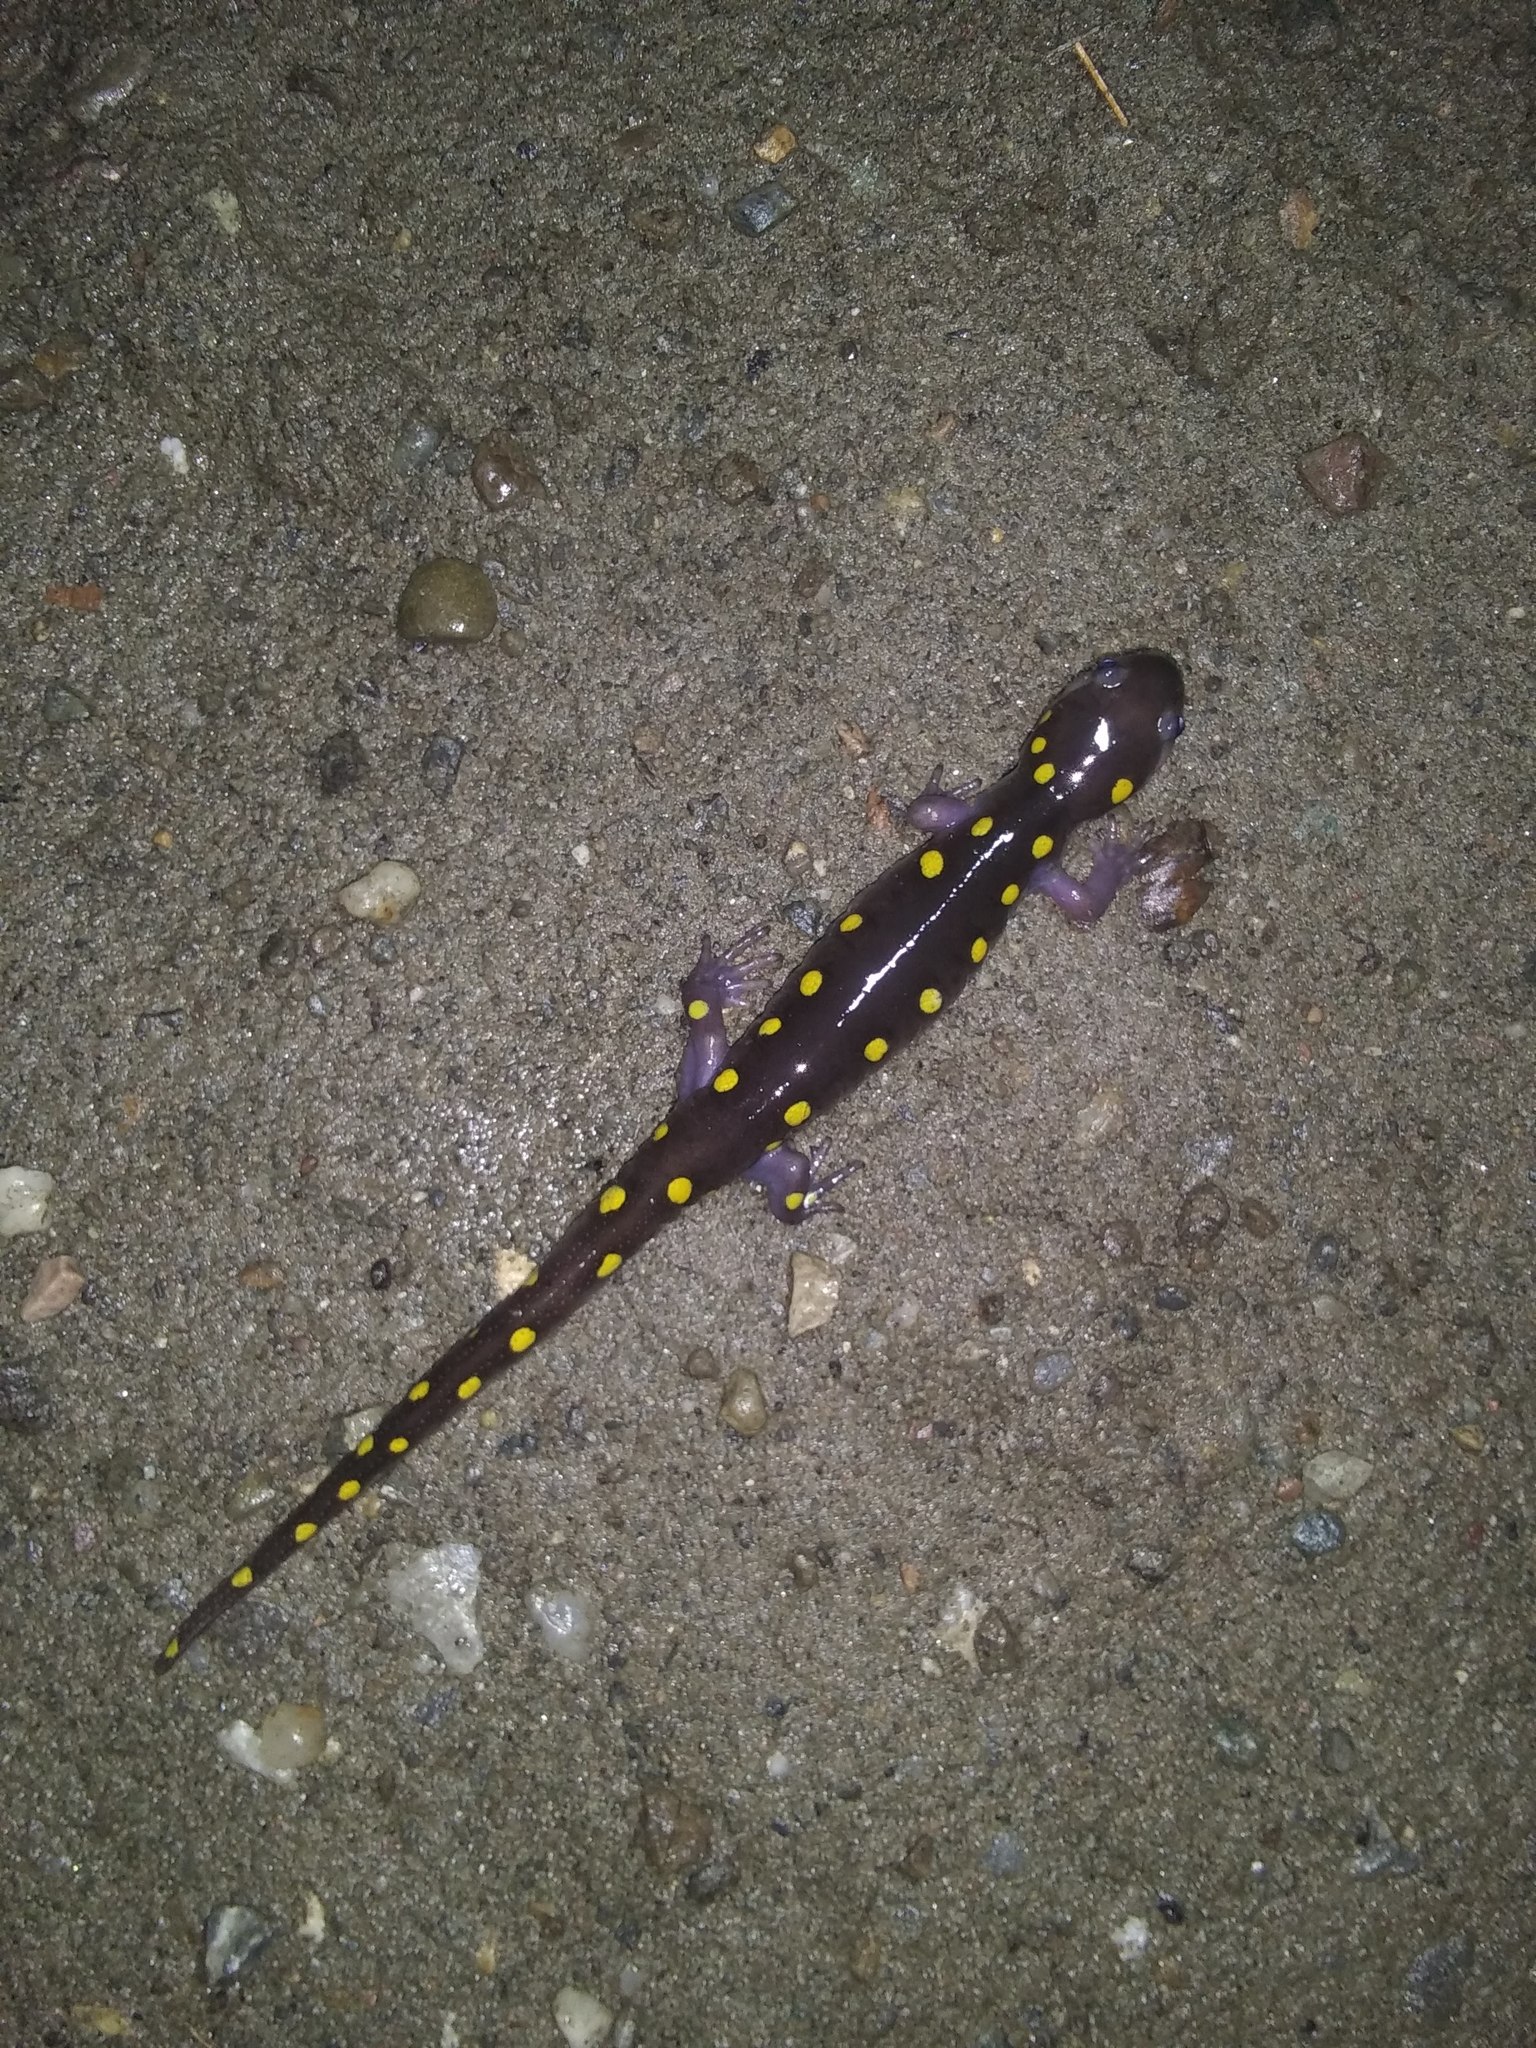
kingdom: Animalia
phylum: Chordata
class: Amphibia
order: Caudata
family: Ambystomatidae
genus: Ambystoma
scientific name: Ambystoma maculatum
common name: Spotted salamander
